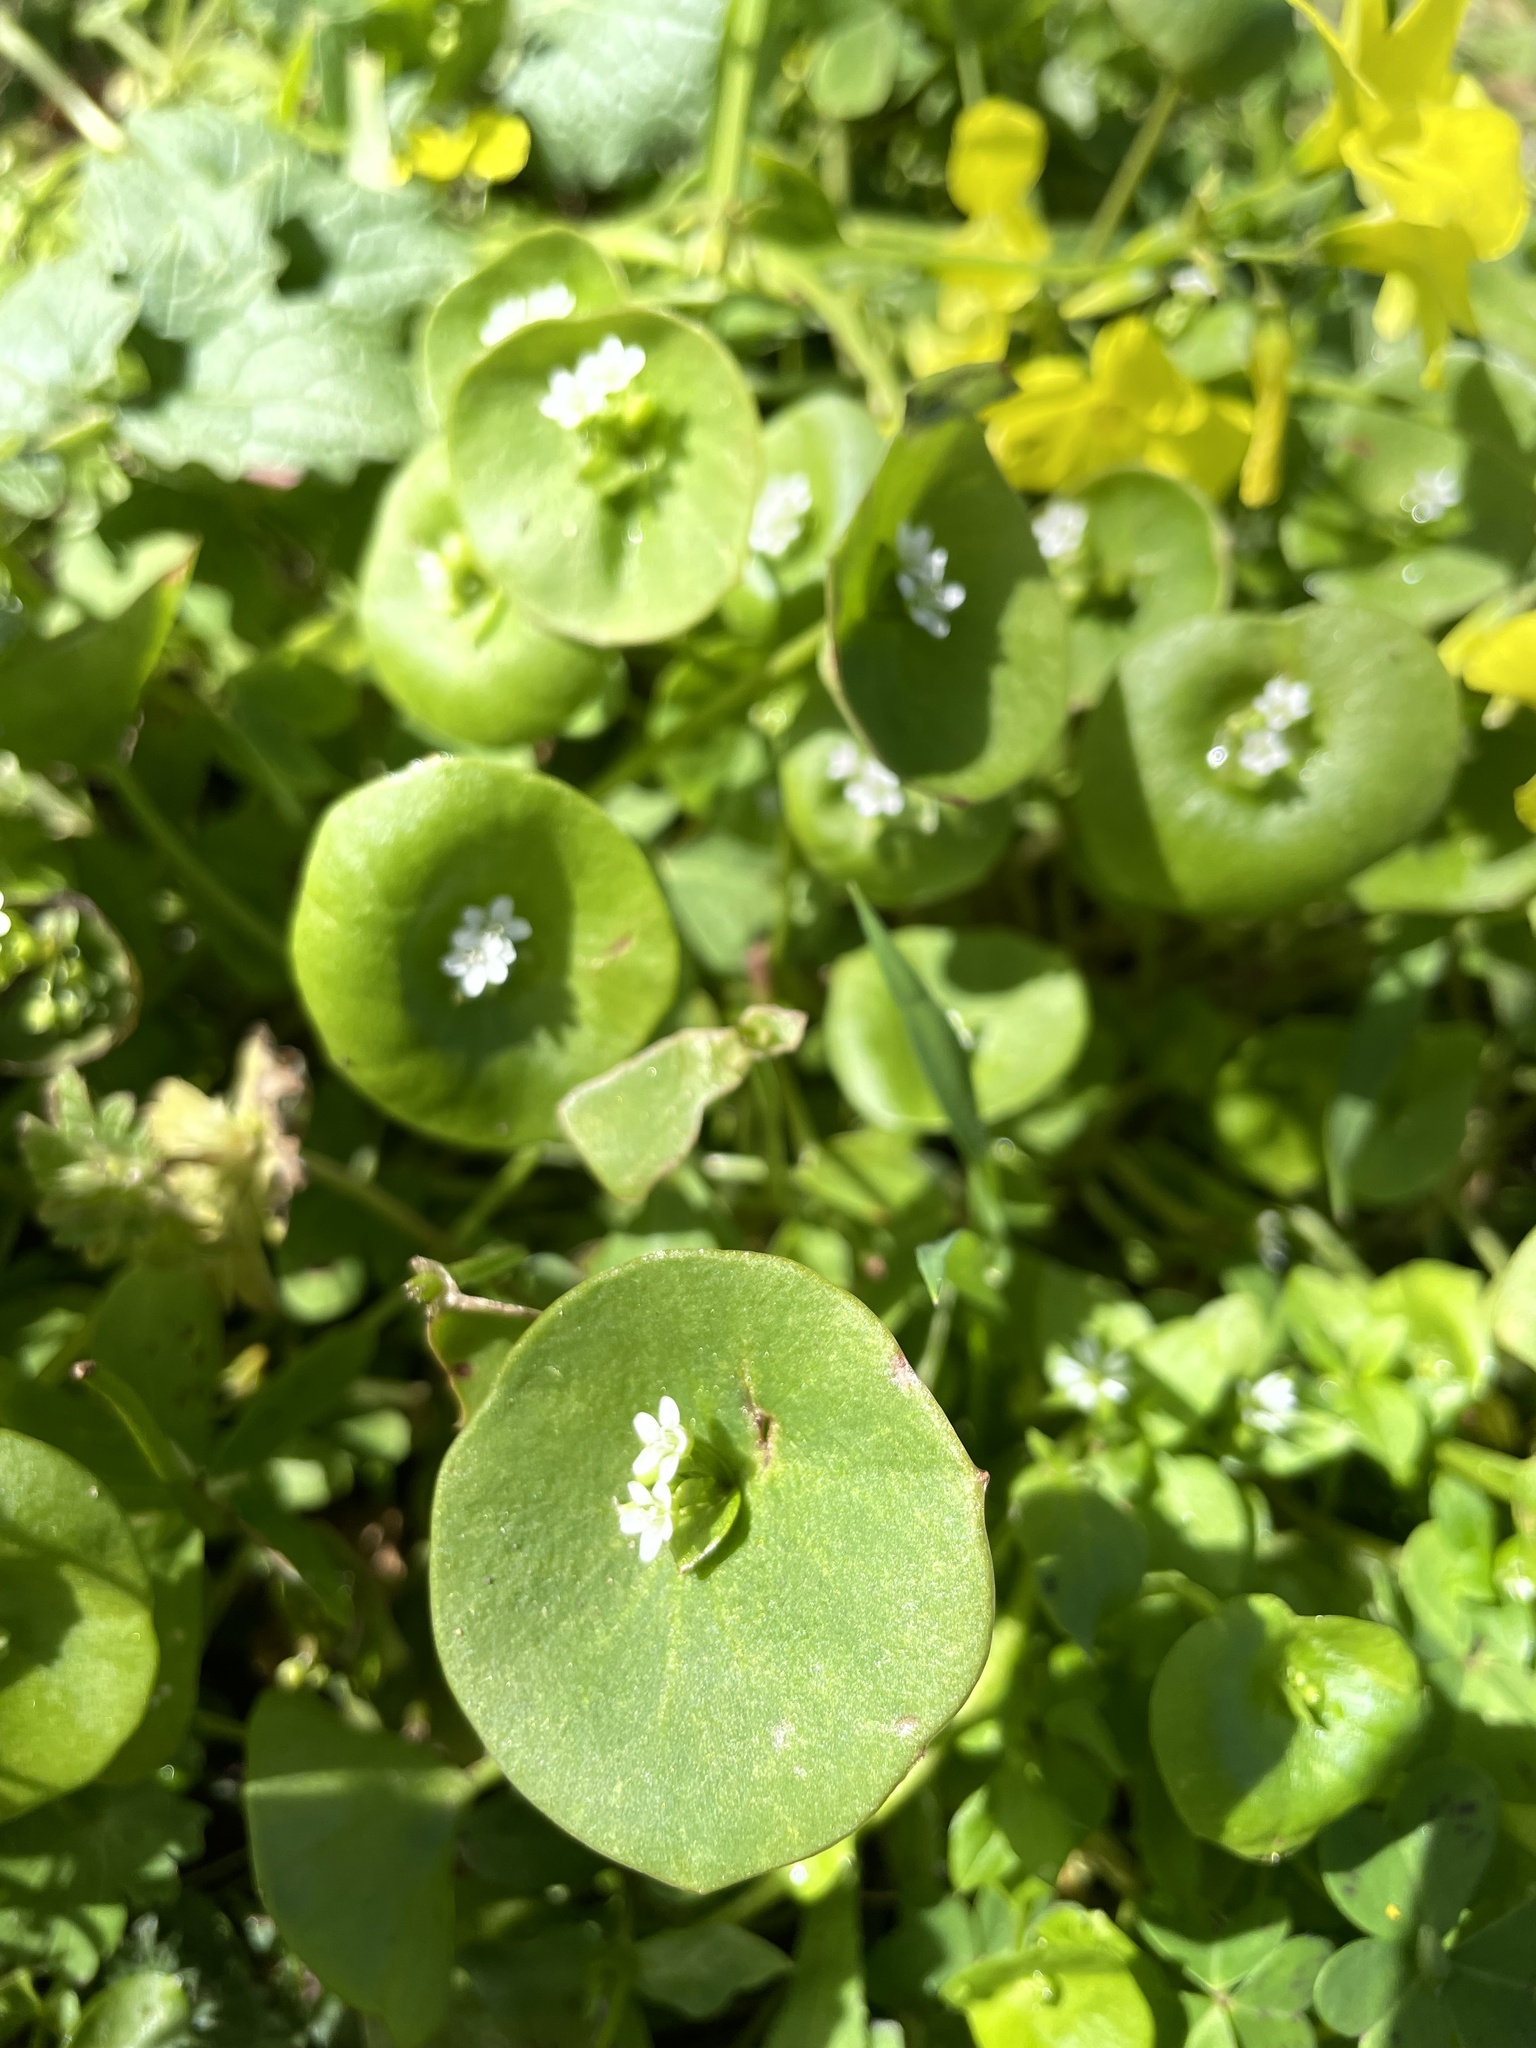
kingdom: Plantae
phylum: Tracheophyta
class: Magnoliopsida
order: Caryophyllales
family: Montiaceae
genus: Claytonia
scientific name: Claytonia perfoliata
